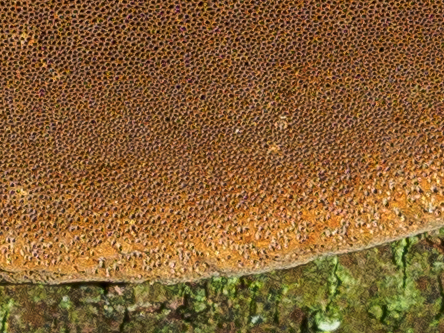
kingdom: Fungi
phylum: Basidiomycota
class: Agaricomycetes
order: Hymenochaetales
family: Hymenochaetaceae
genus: Phellinus
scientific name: Phellinus pomaceus
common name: Cushion bracket
